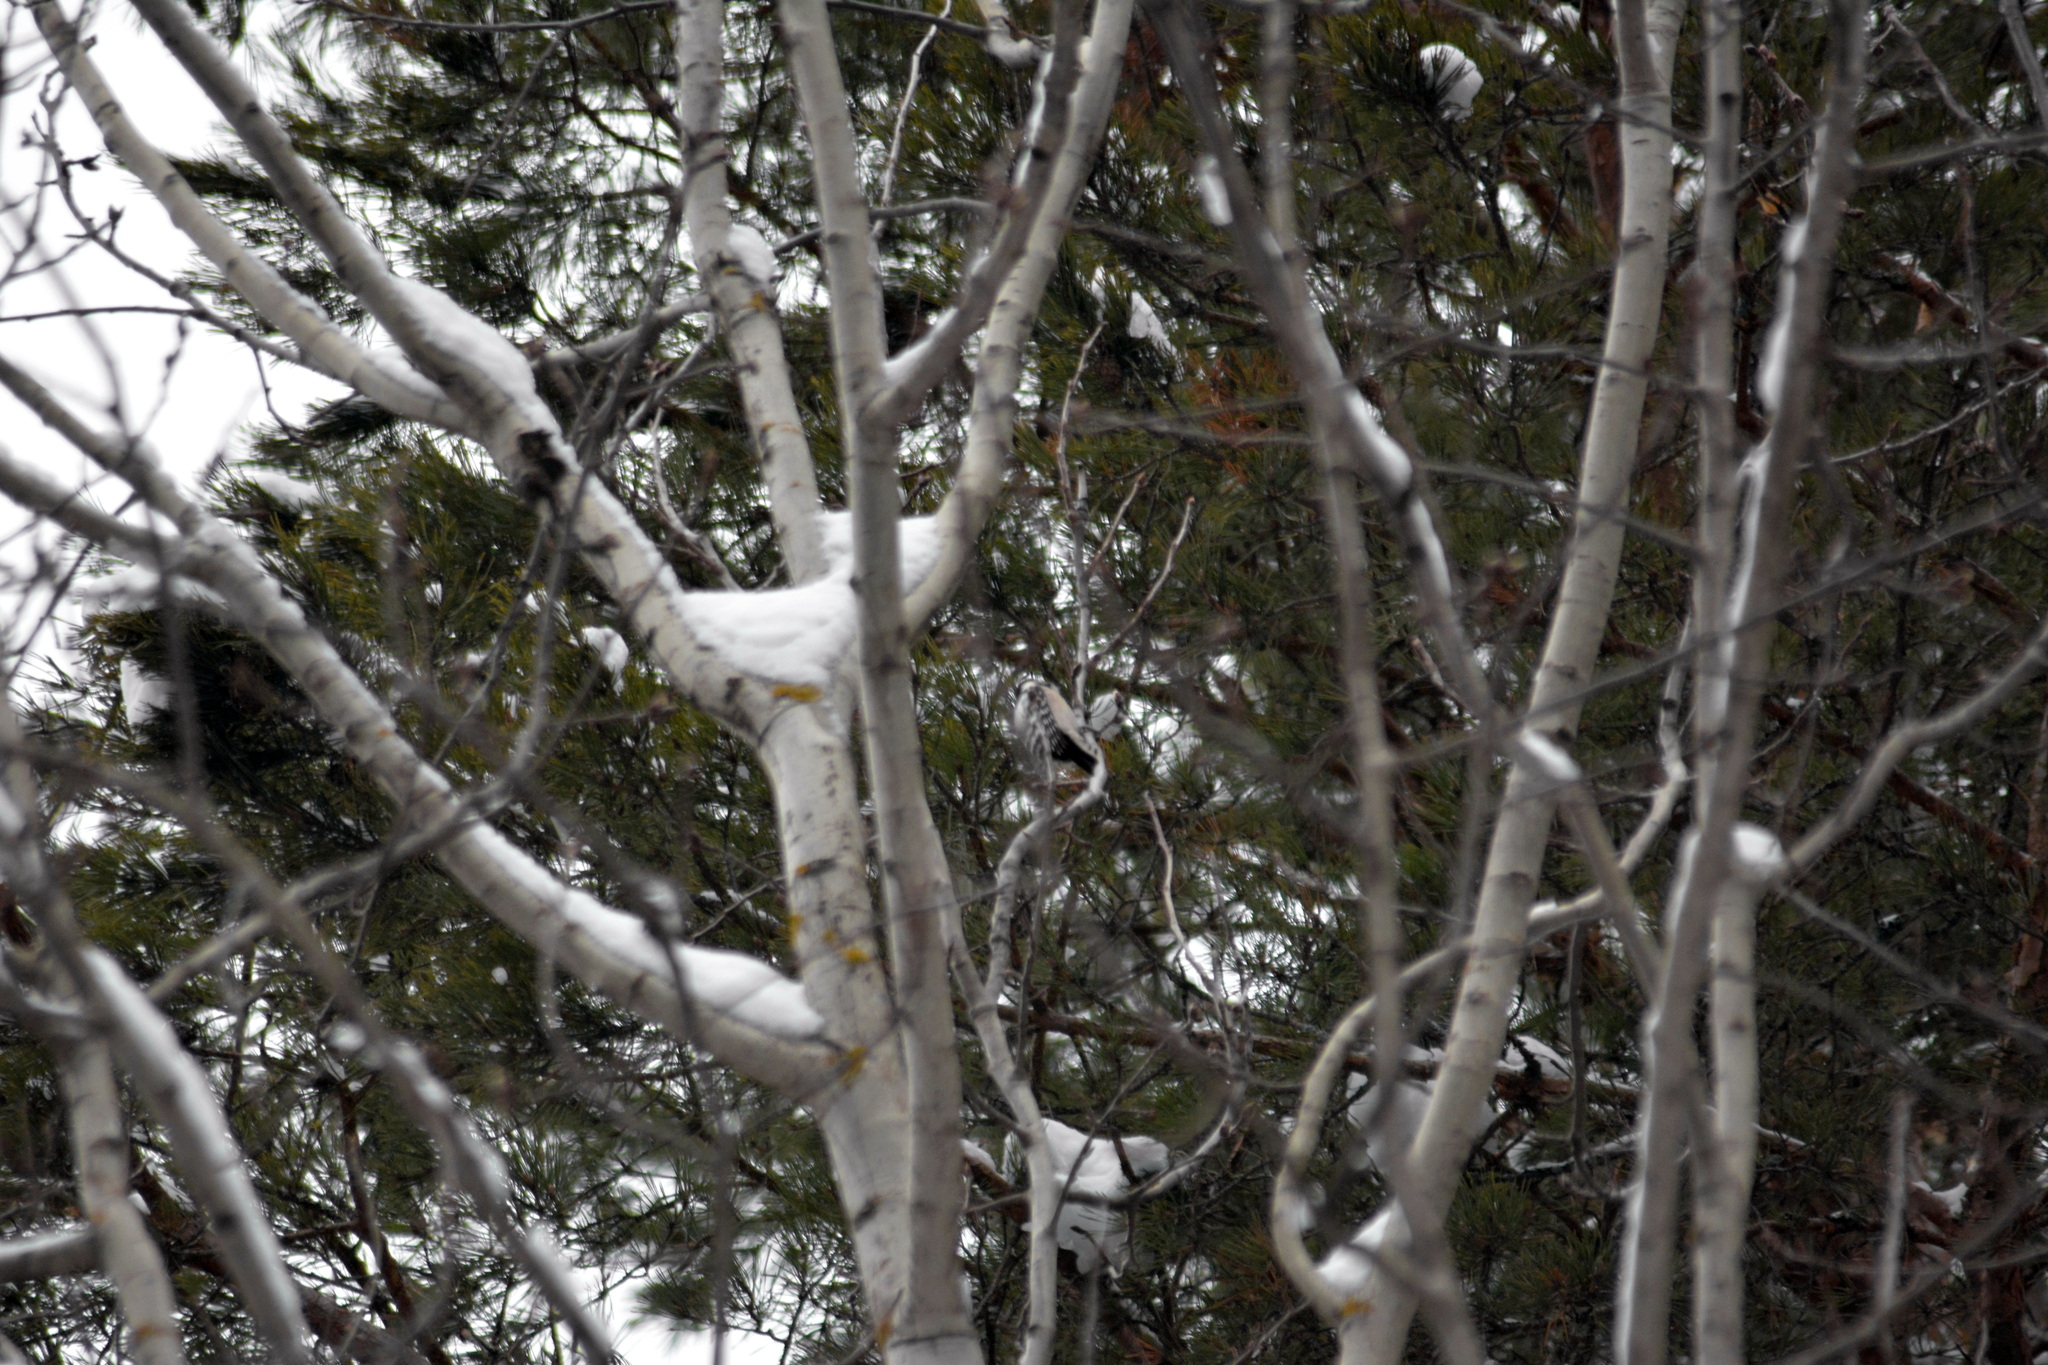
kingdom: Animalia
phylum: Chordata
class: Aves
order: Piciformes
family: Picidae
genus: Dryobates
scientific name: Dryobates minor
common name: Lesser spotted woodpecker
